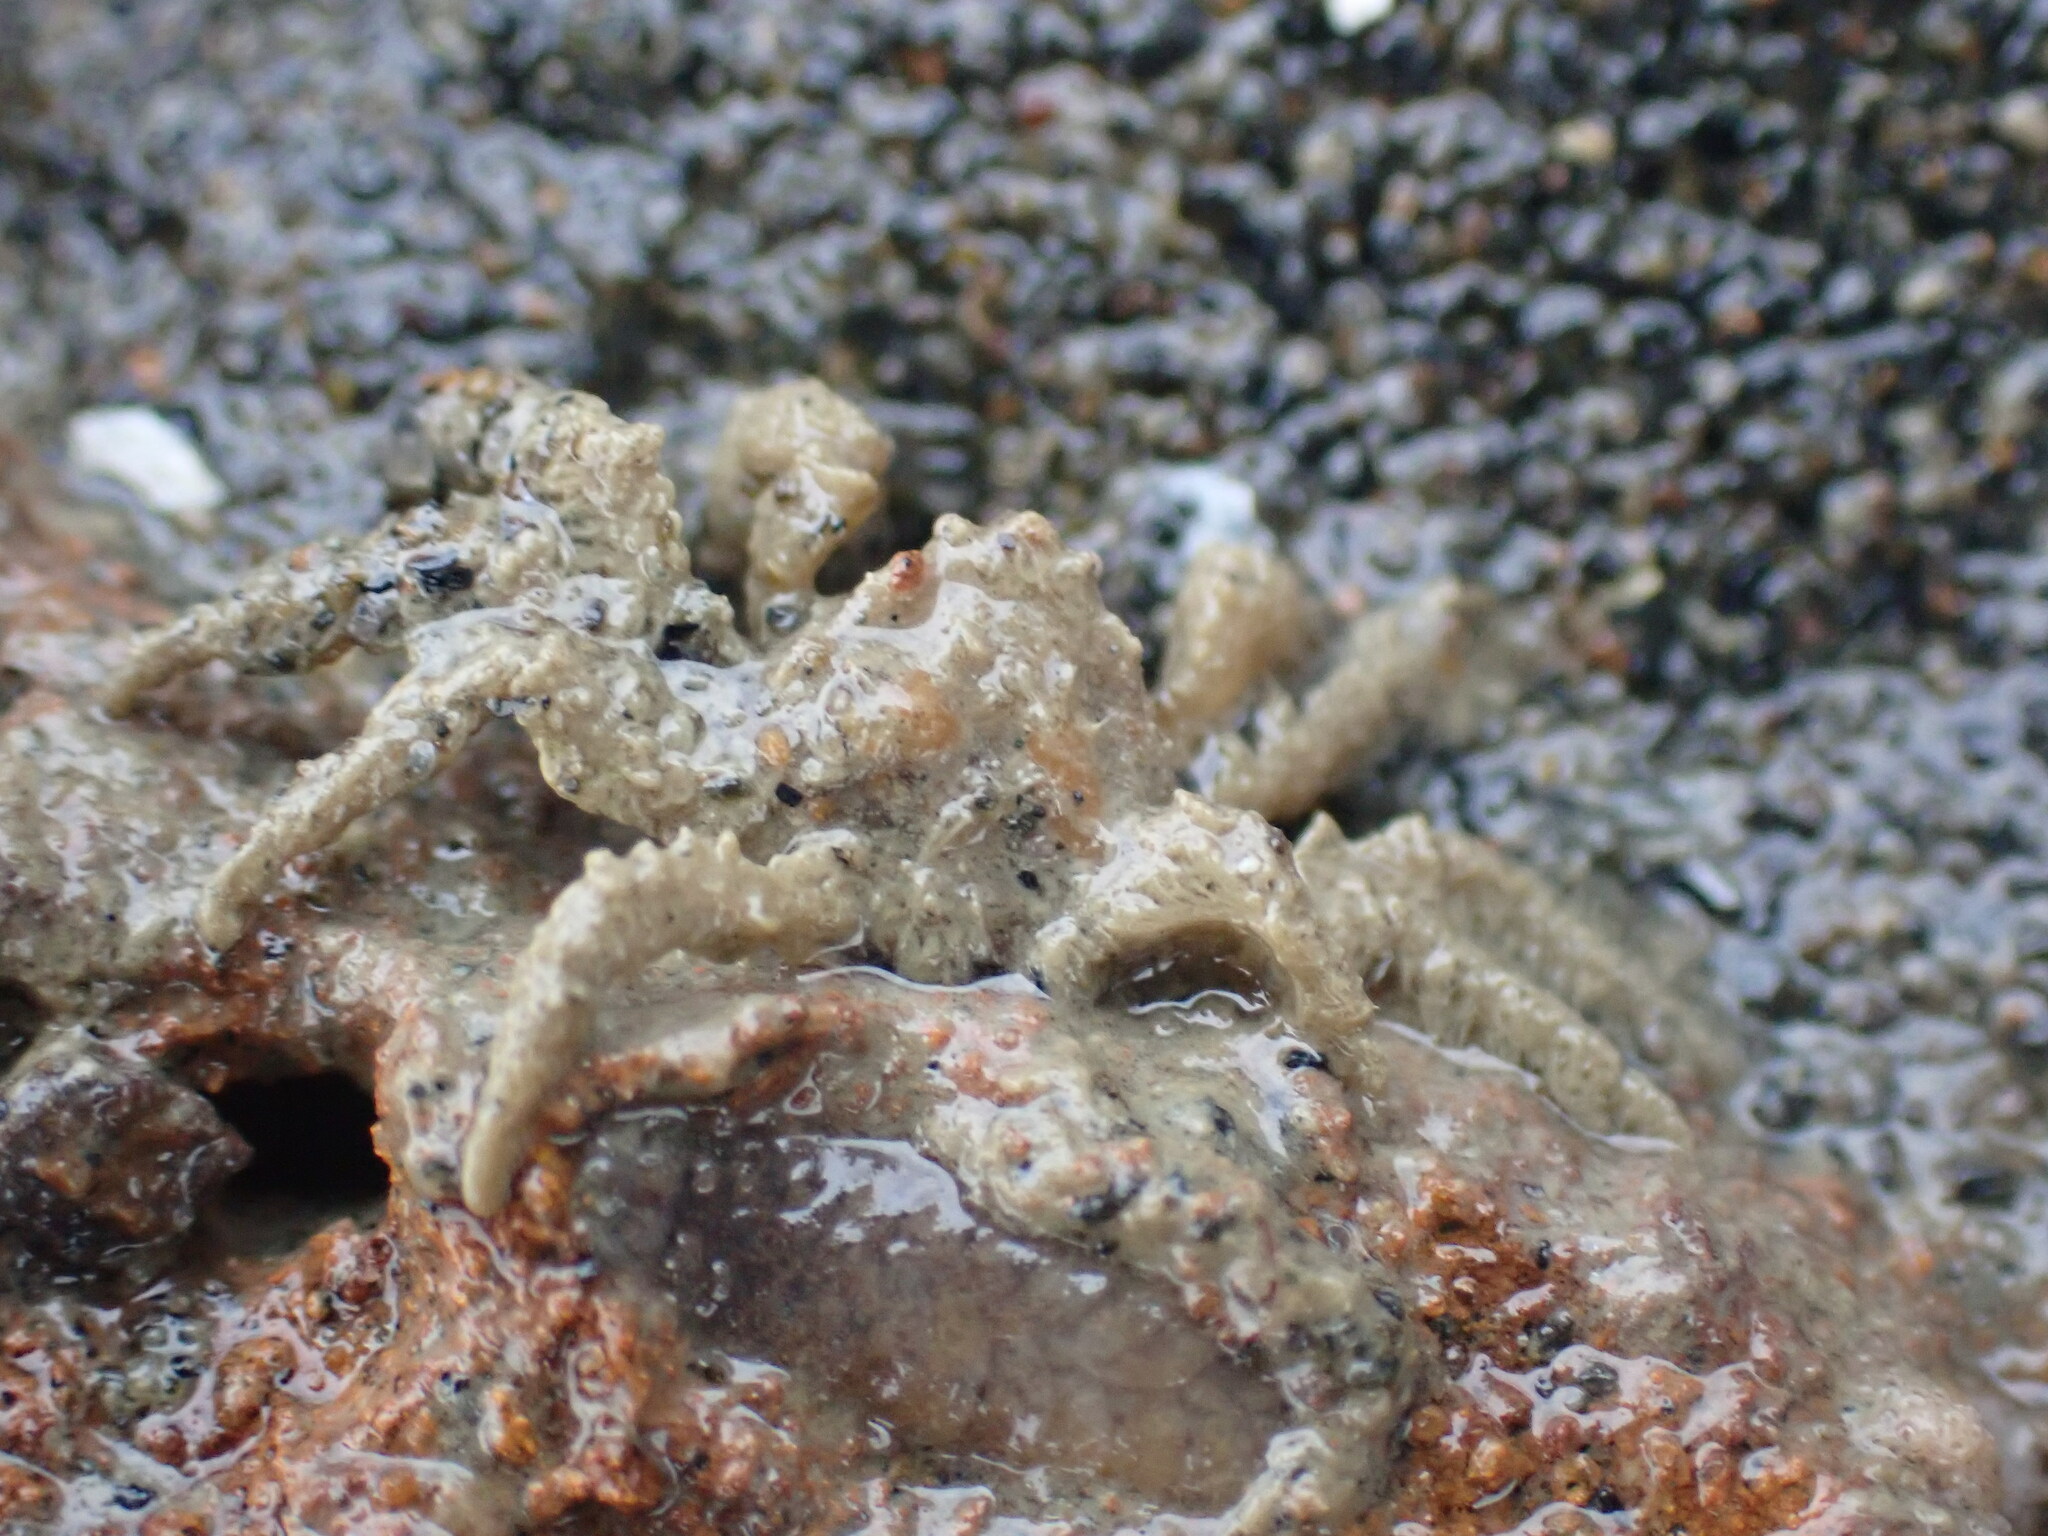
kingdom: Animalia
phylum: Arthropoda
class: Malacostraca
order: Decapoda
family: Hymenosomatidae
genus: Neohymenicus
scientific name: Neohymenicus pubescens
